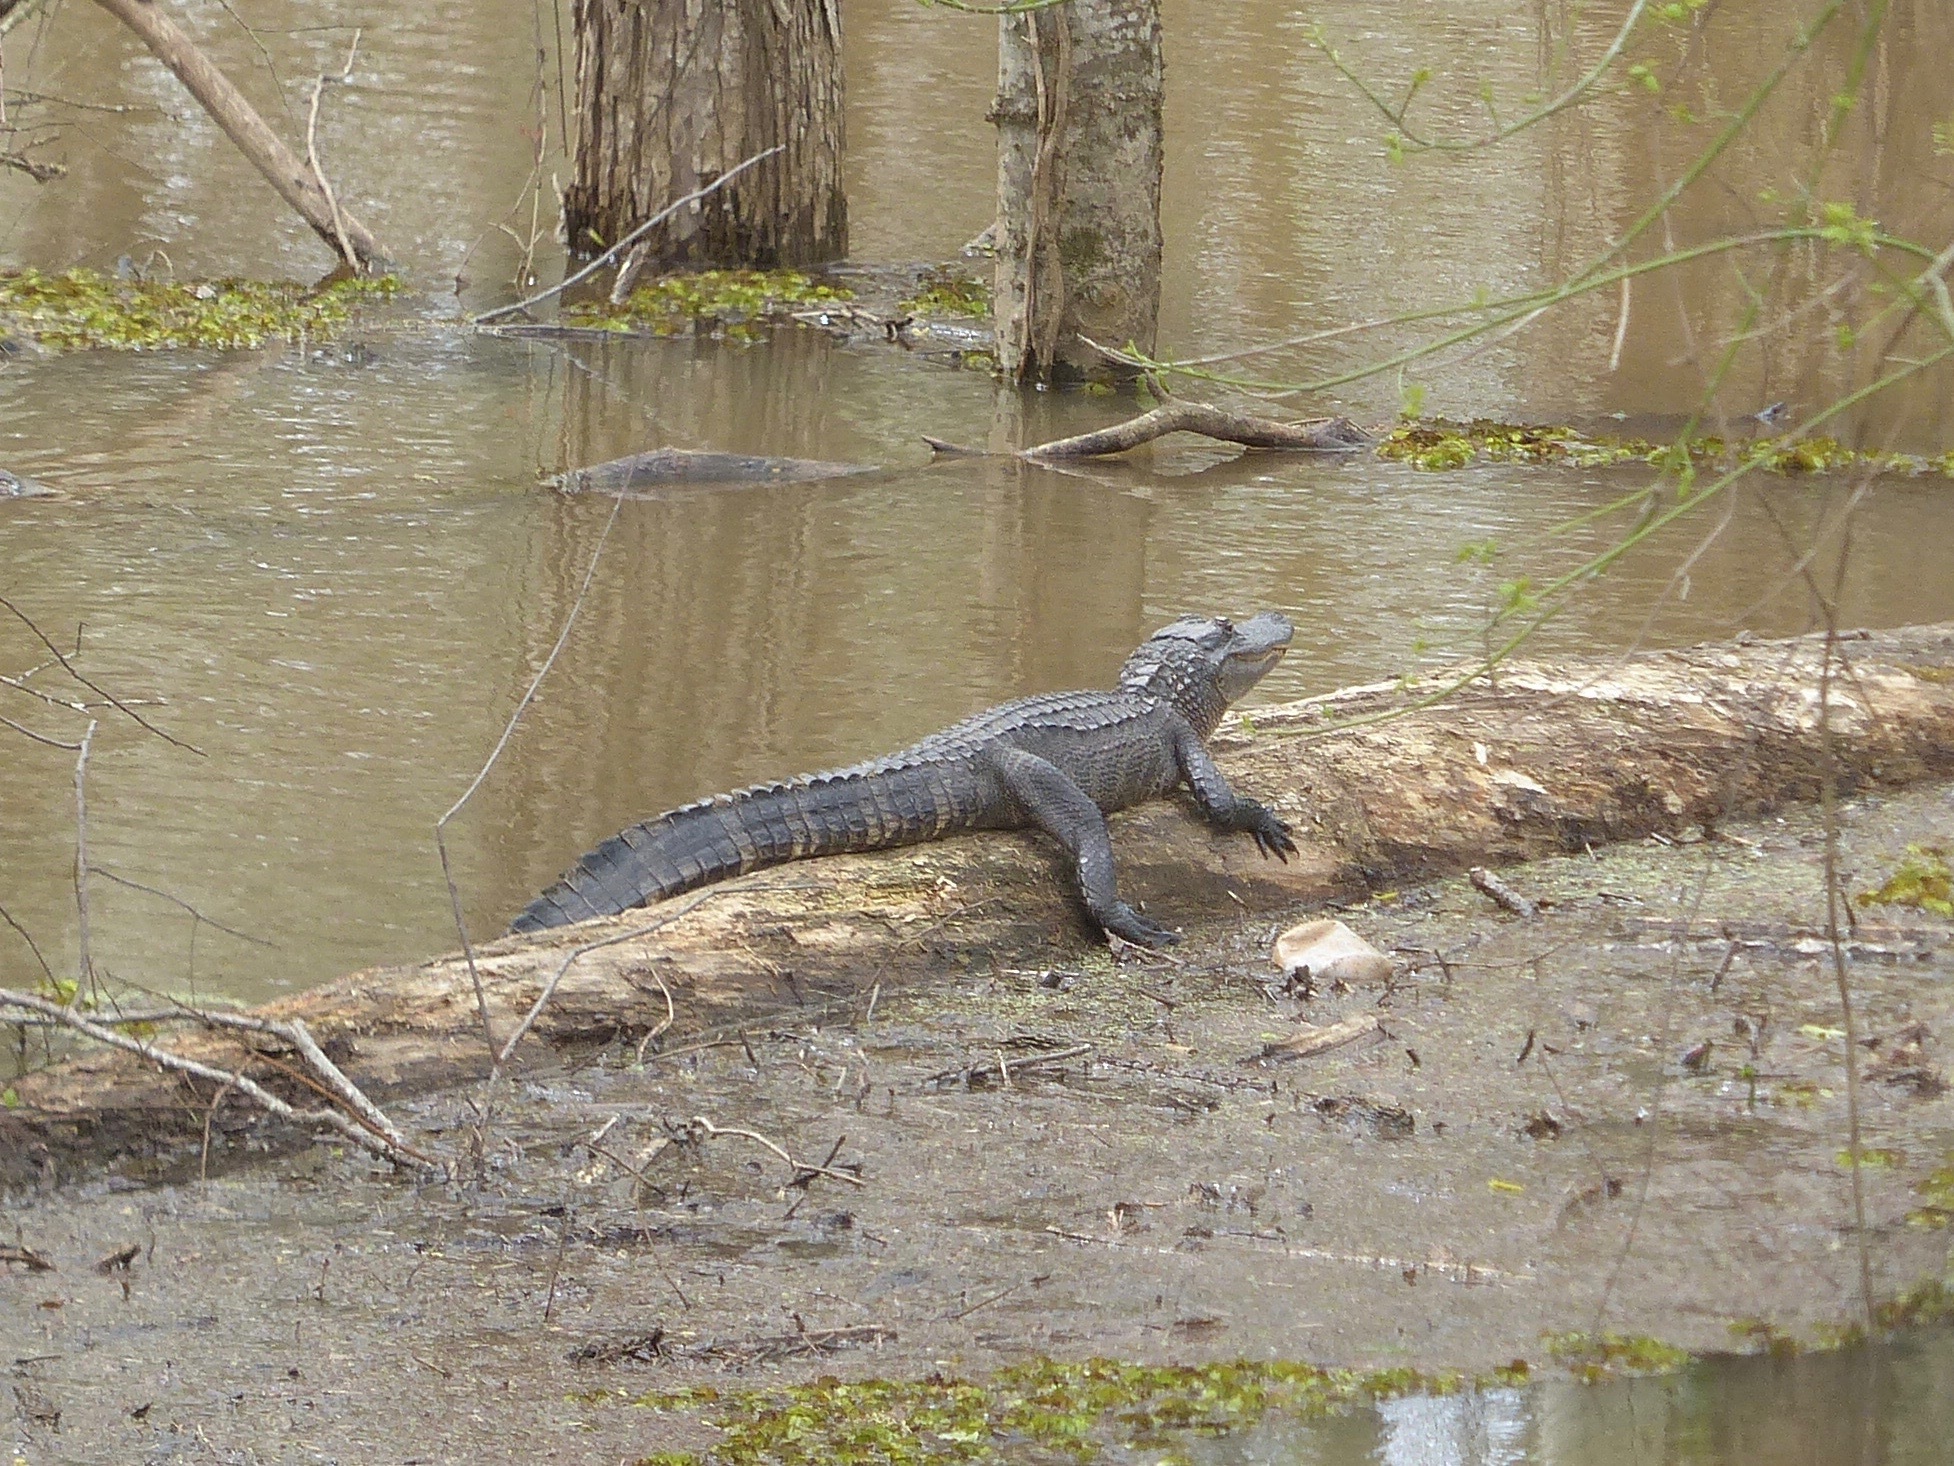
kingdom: Animalia
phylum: Chordata
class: Crocodylia
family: Alligatoridae
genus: Alligator
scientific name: Alligator mississippiensis
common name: American alligator
